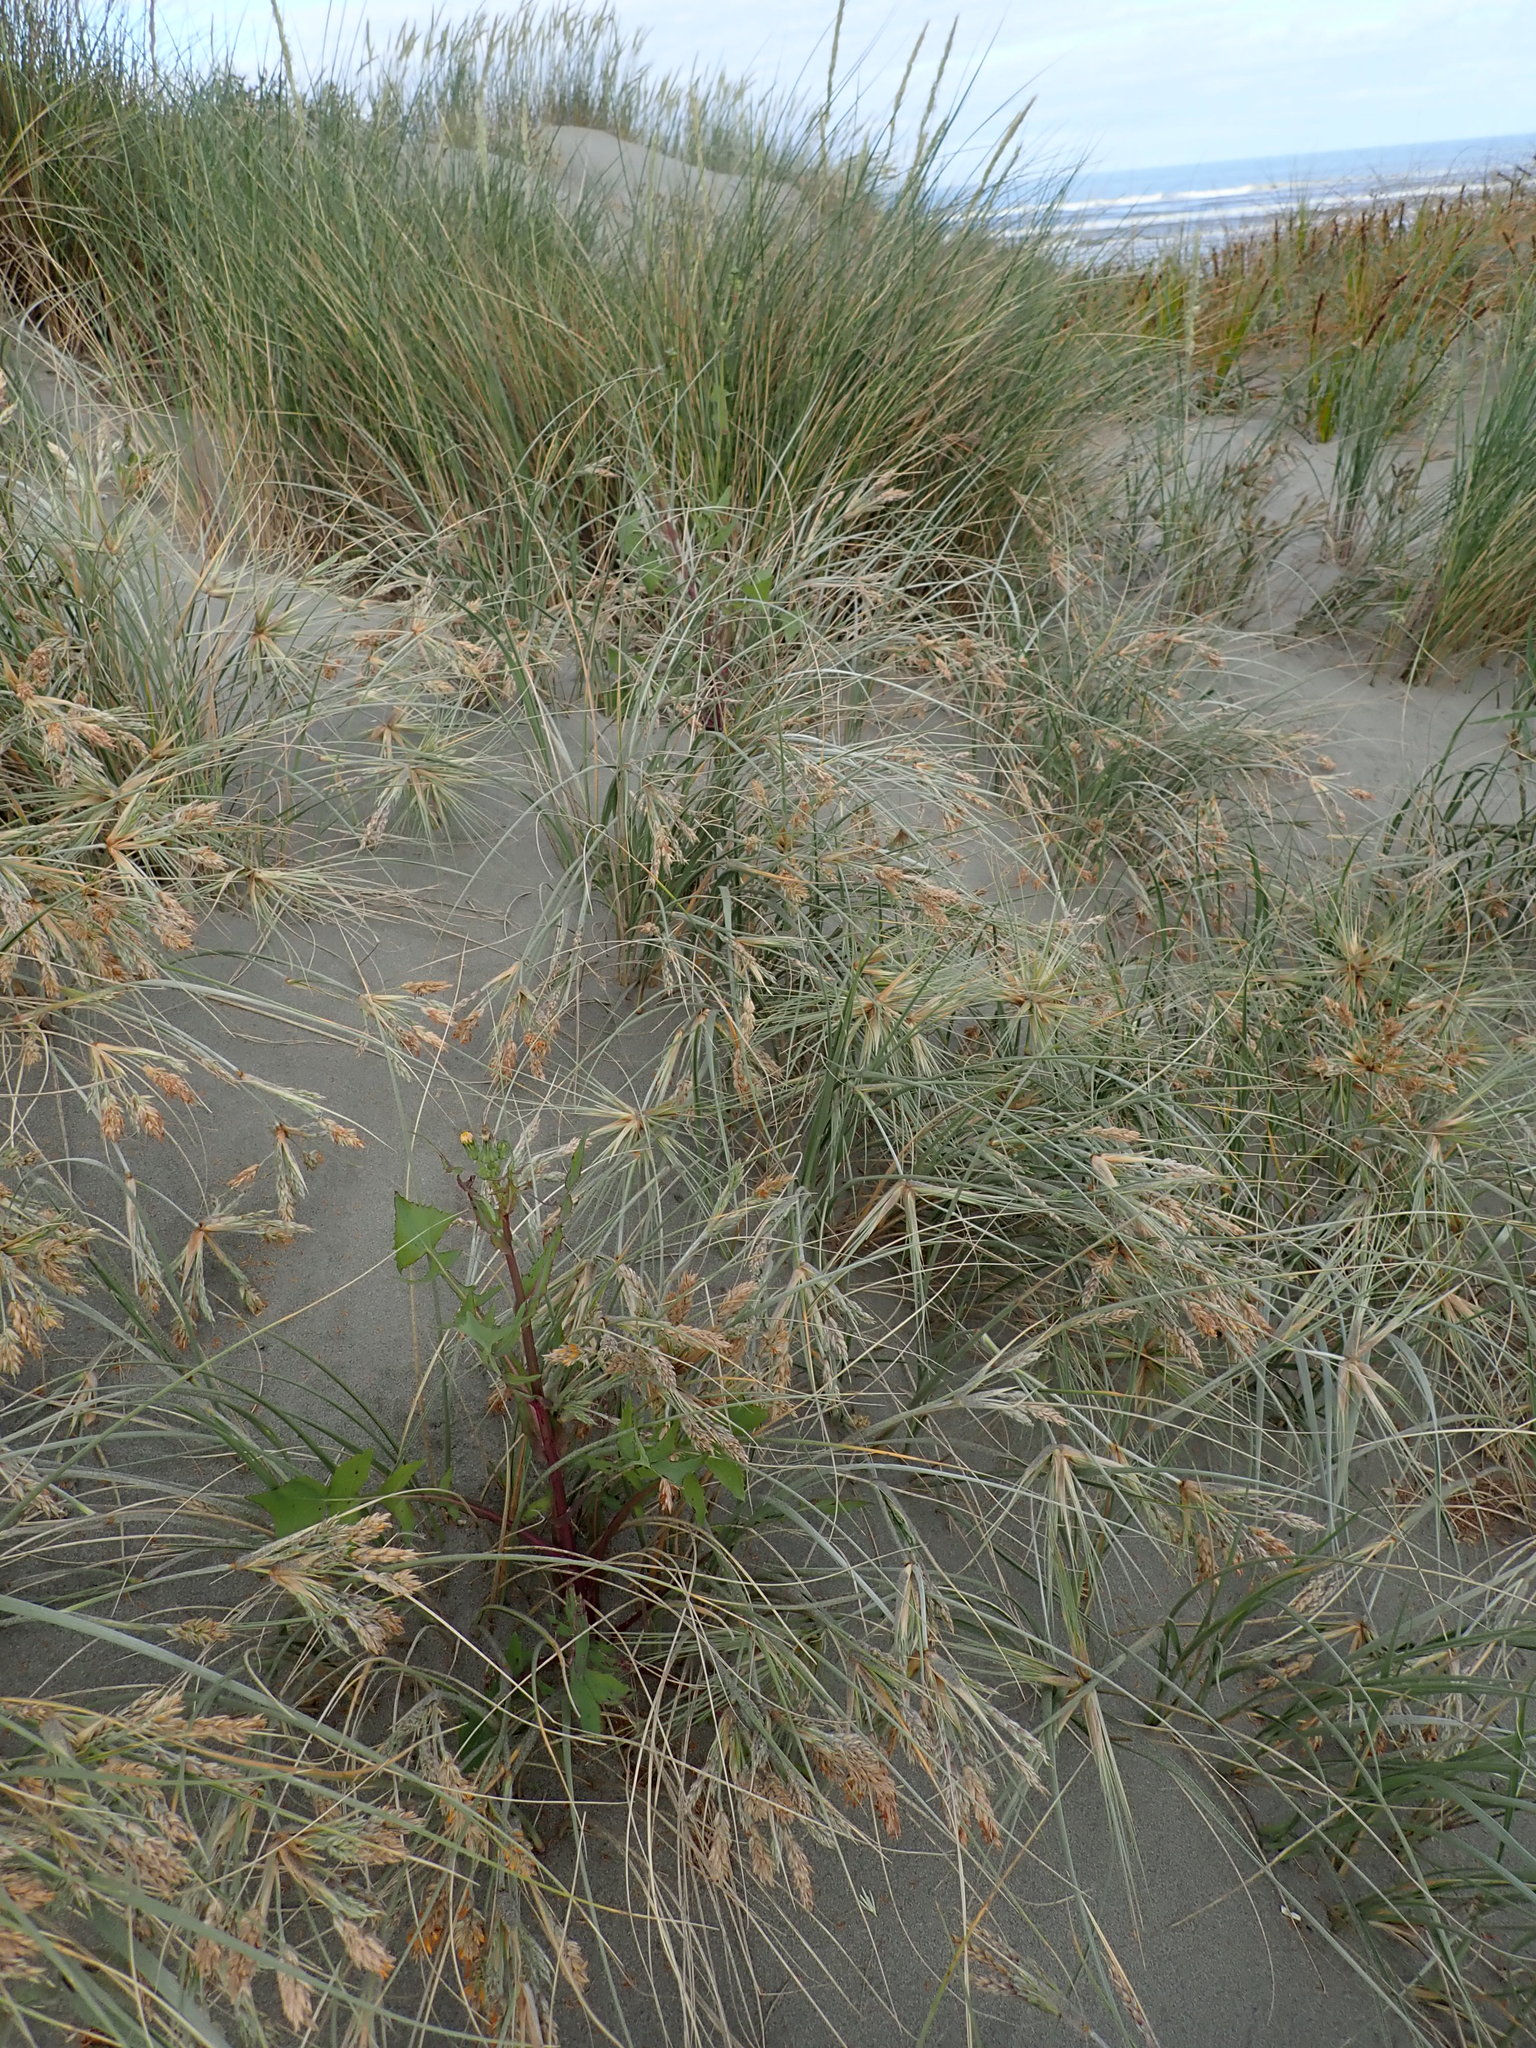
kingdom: Plantae
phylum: Tracheophyta
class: Magnoliopsida
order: Asterales
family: Asteraceae
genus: Sonchus
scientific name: Sonchus oleraceus
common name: Common sowthistle
